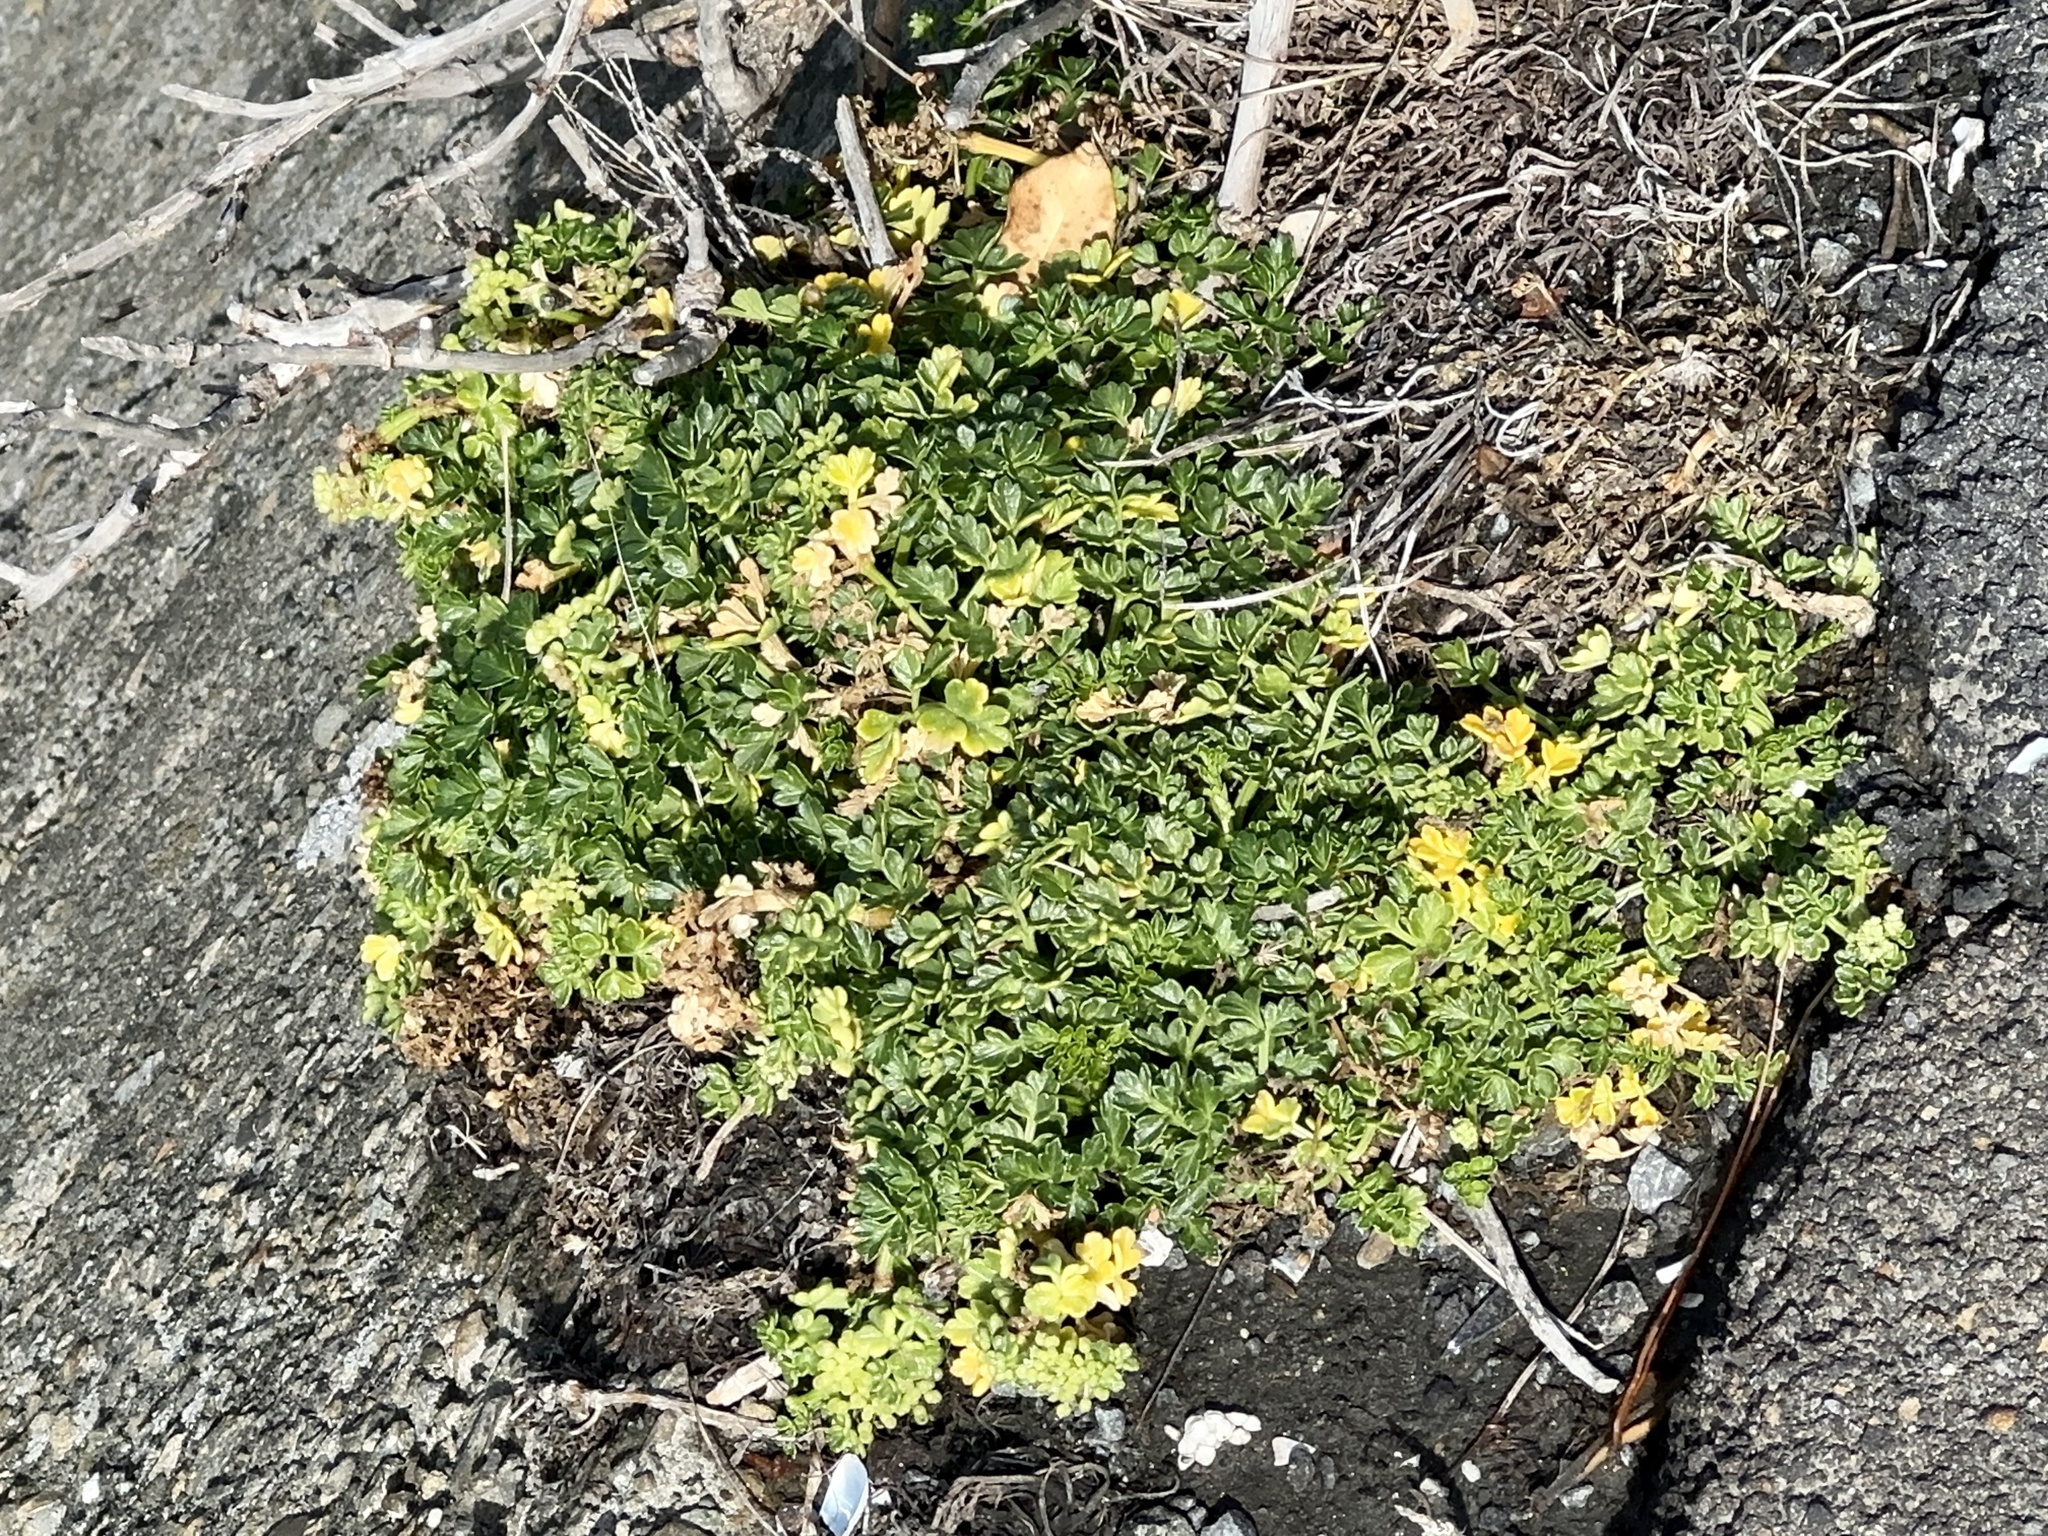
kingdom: Plantae
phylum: Tracheophyta
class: Magnoliopsida
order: Apiales
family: Apiaceae
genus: Apium
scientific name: Apium prostratum
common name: Prostrate marshwort
